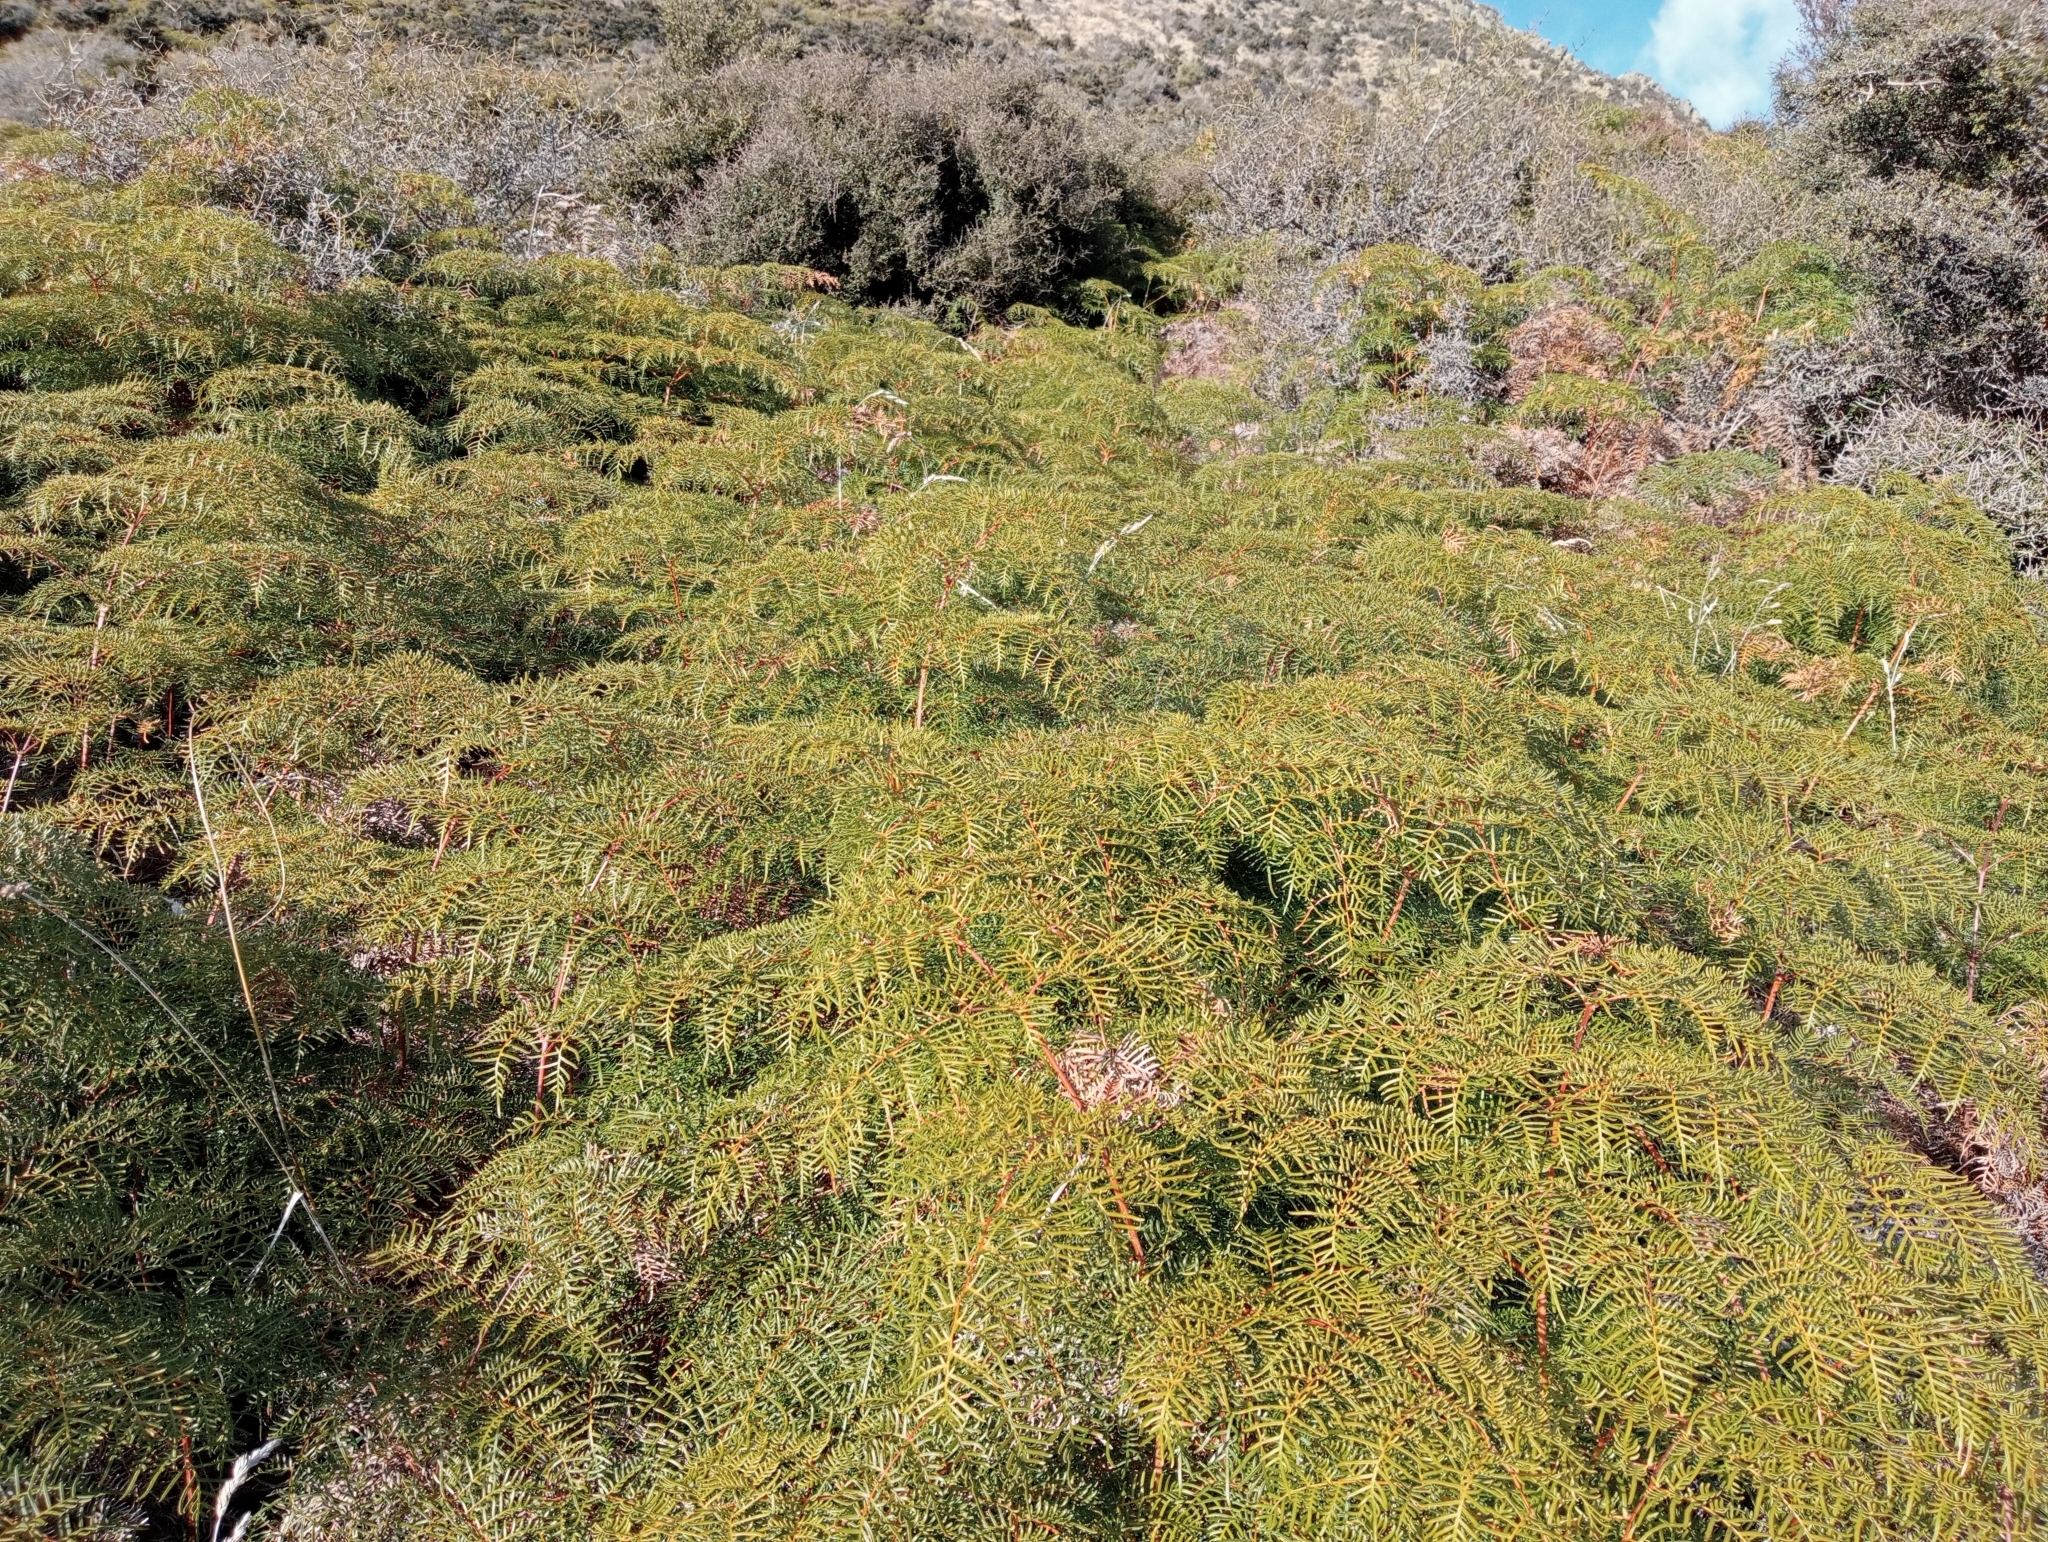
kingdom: Plantae
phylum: Tracheophyta
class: Polypodiopsida
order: Polypodiales
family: Dennstaedtiaceae
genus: Pteridium
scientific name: Pteridium esculentum
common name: Bracken fern
